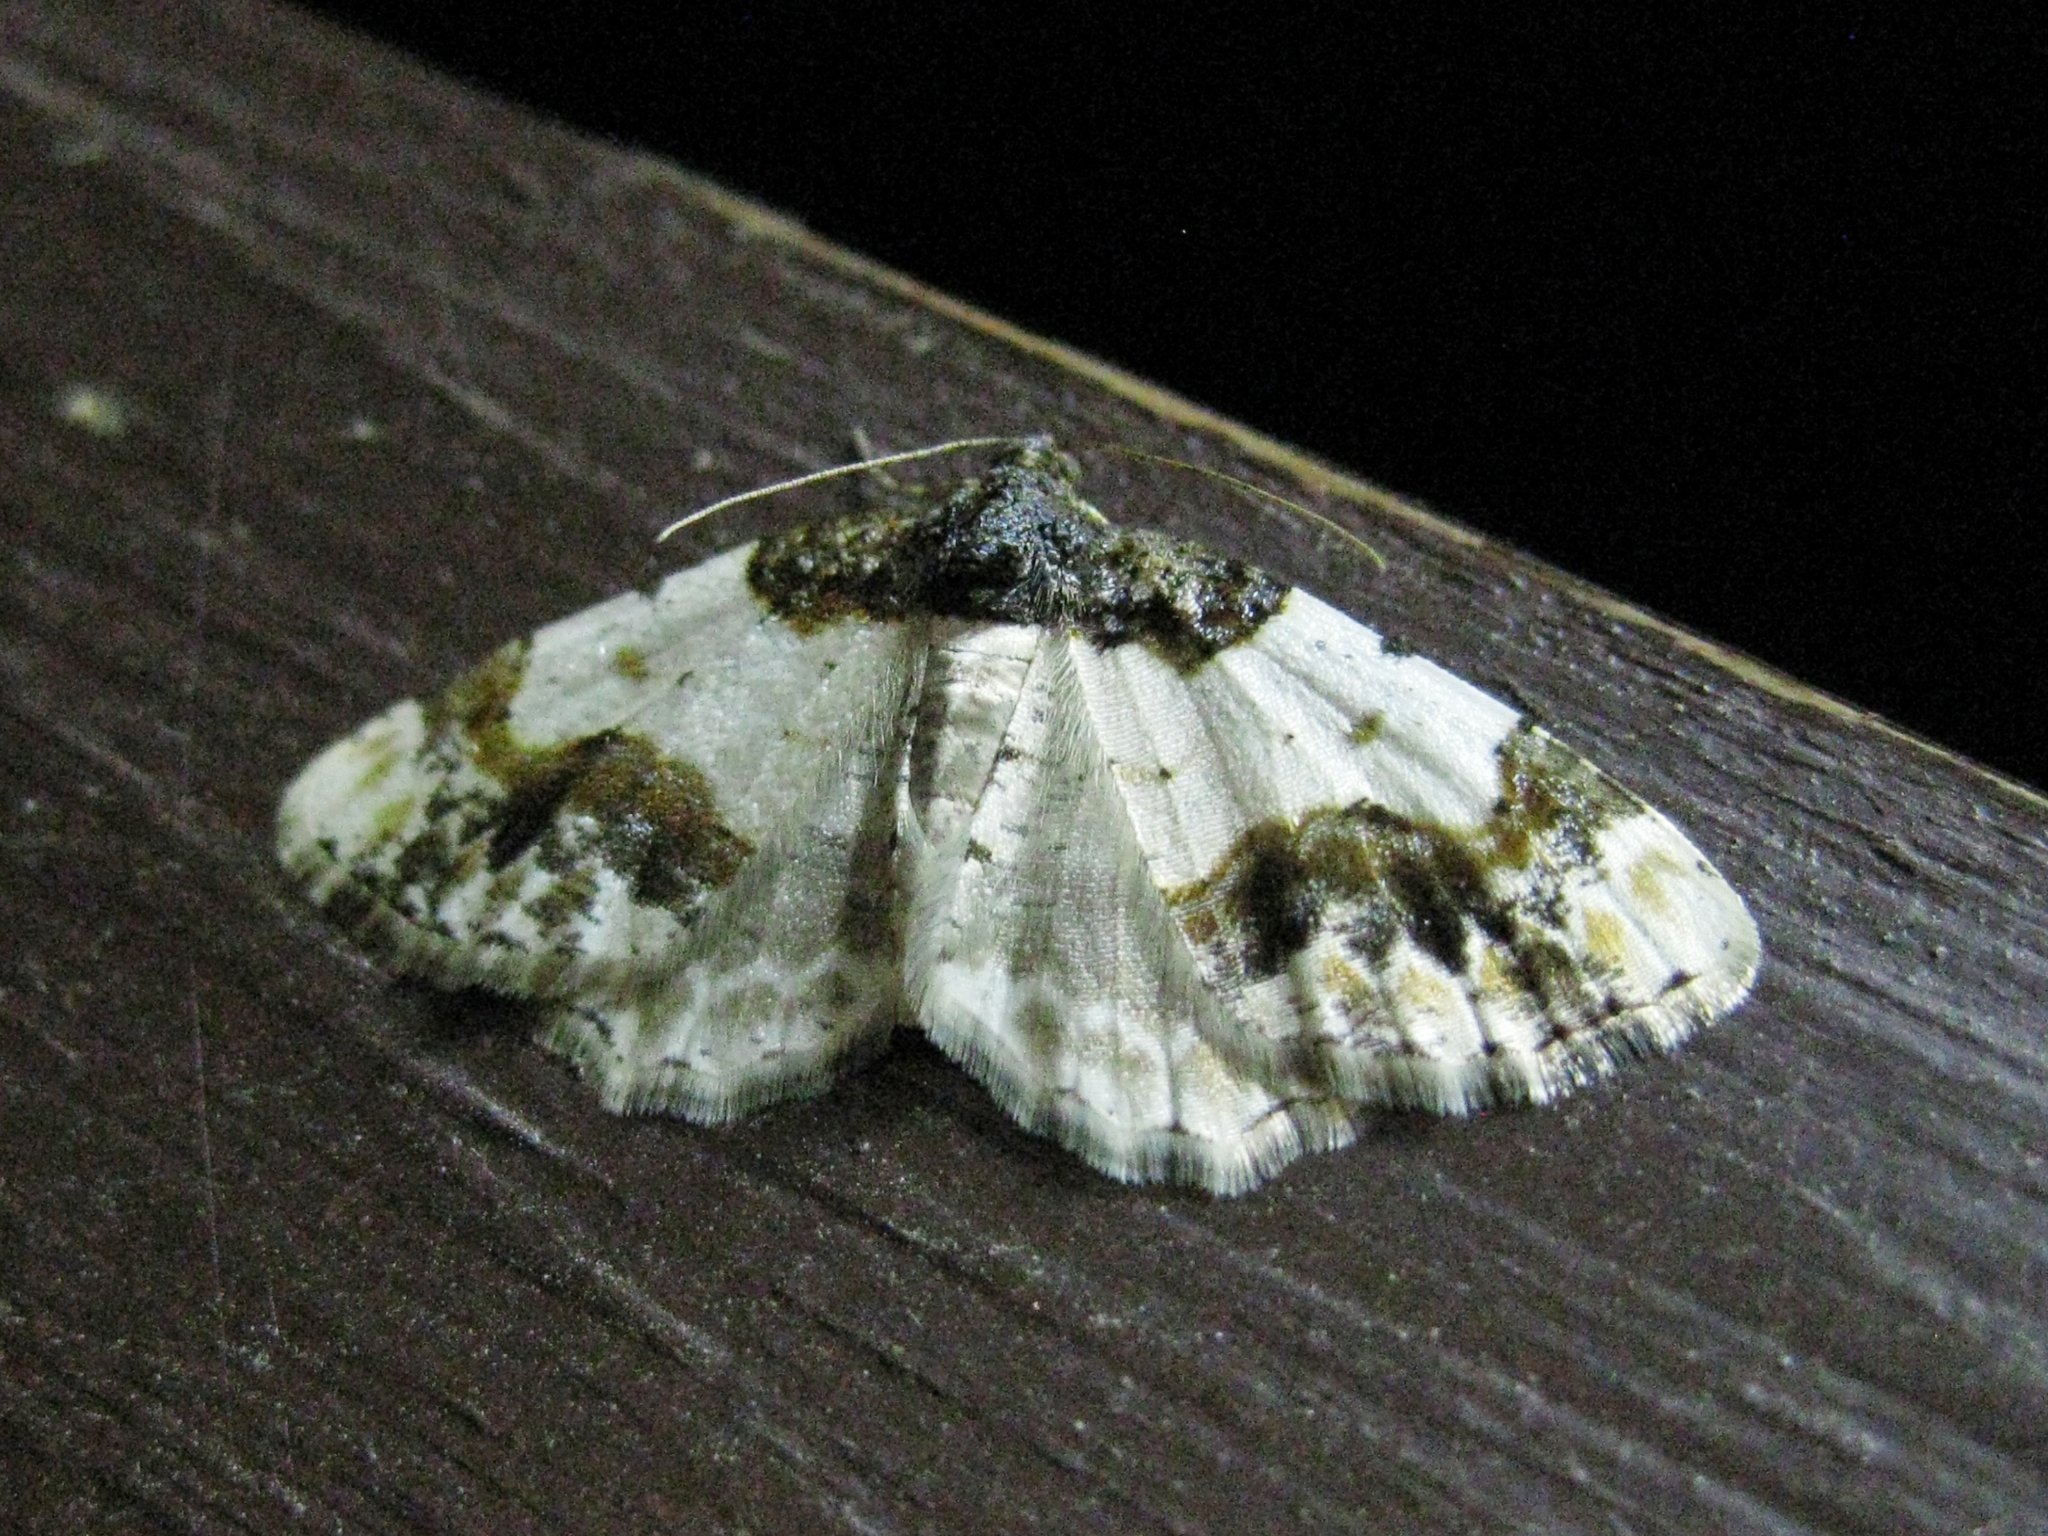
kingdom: Animalia
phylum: Arthropoda
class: Insecta
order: Lepidoptera
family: Geometridae
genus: Ligdia
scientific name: Ligdia adustata
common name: Scorched carpet
